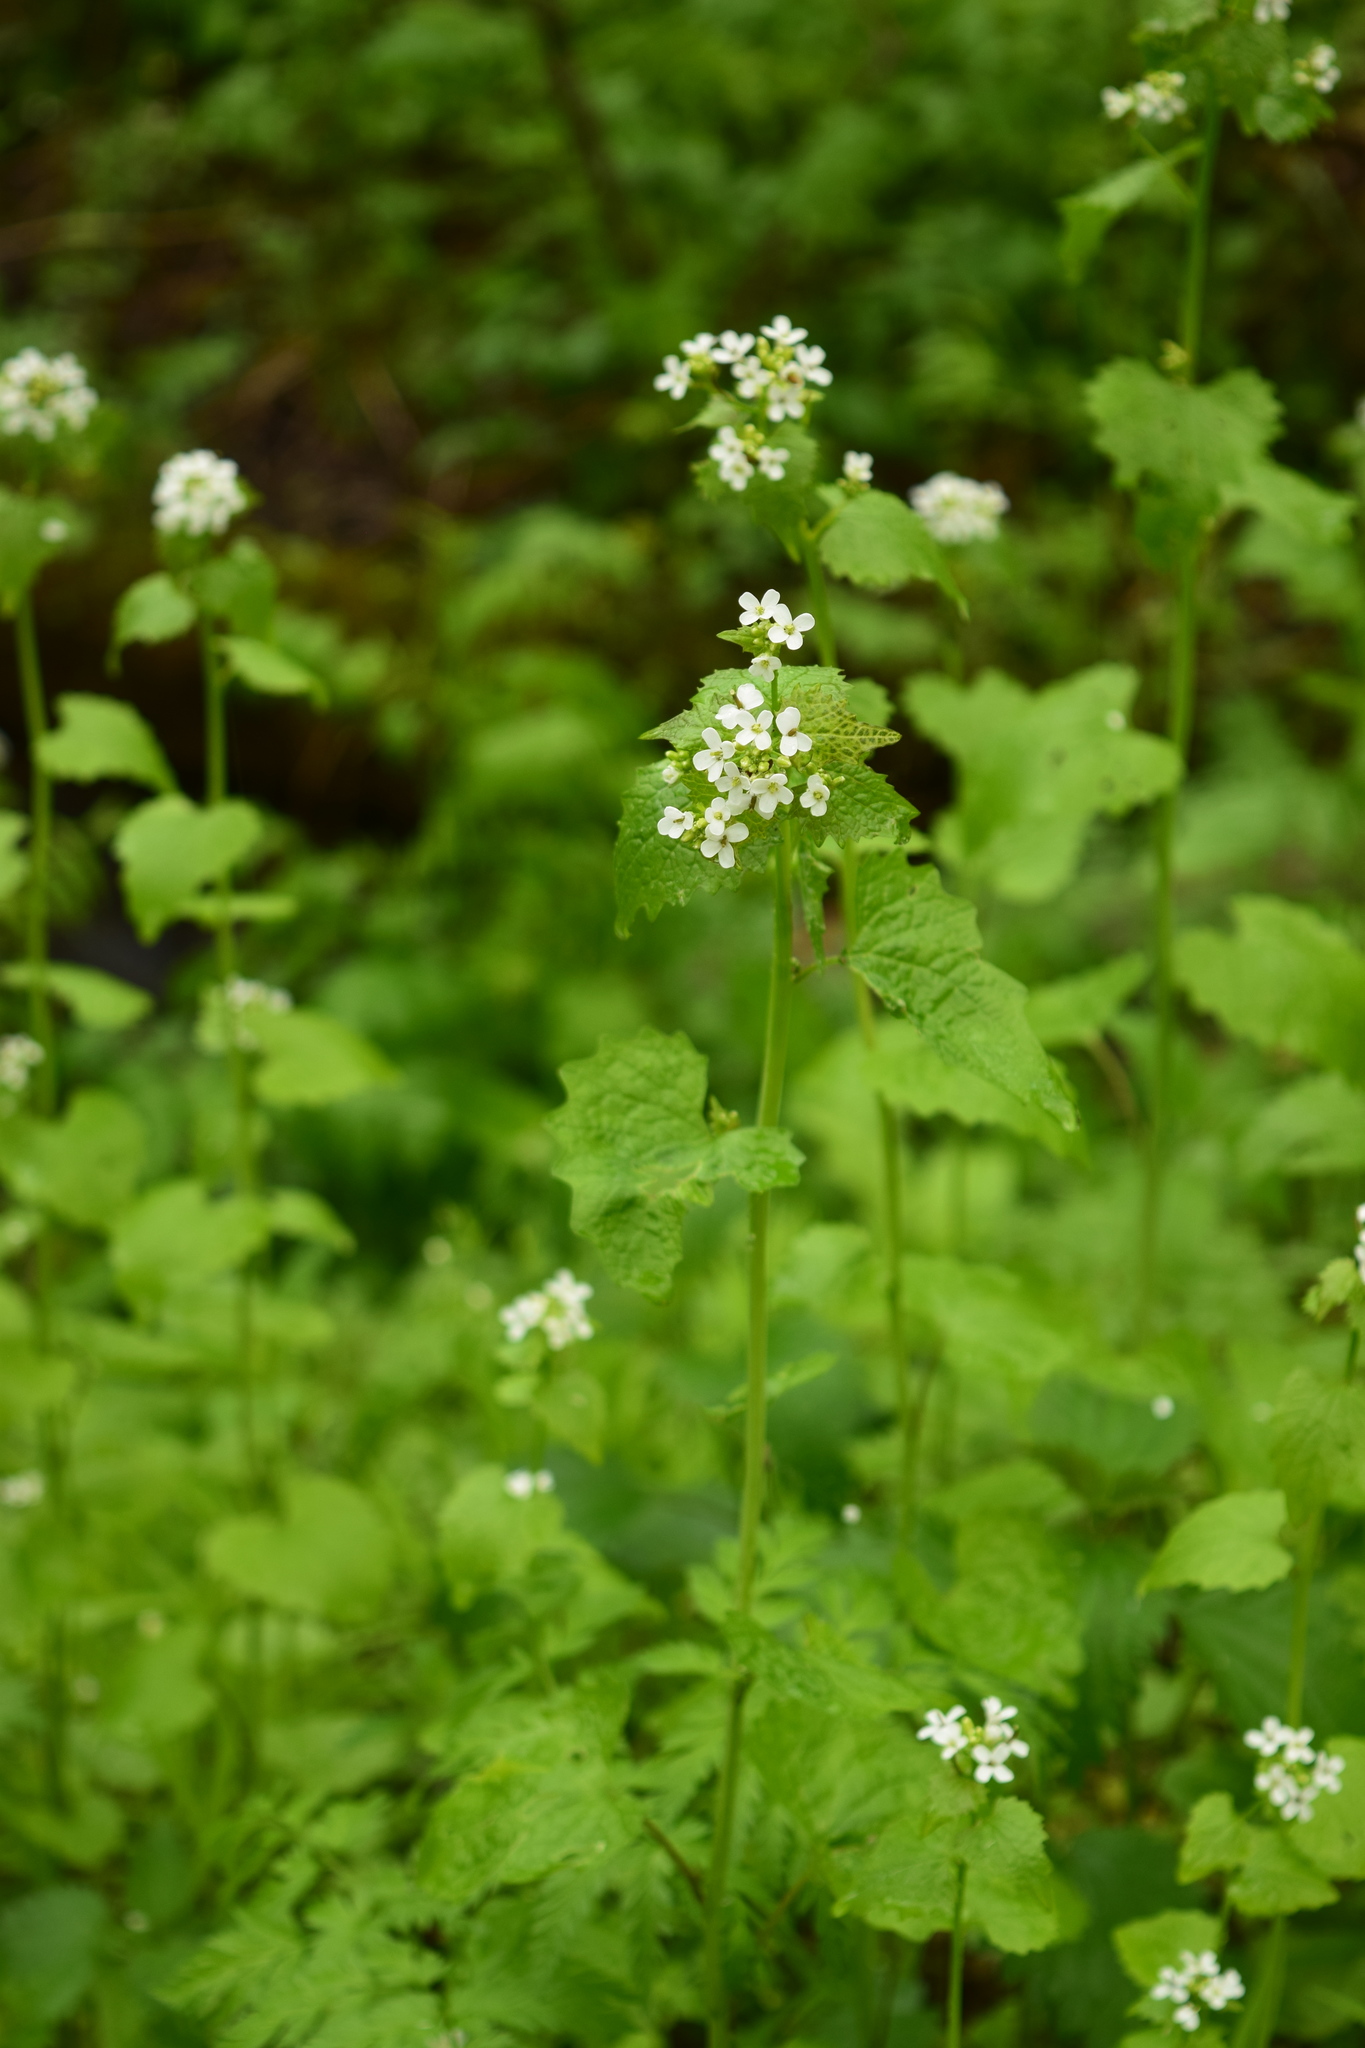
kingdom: Plantae
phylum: Tracheophyta
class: Magnoliopsida
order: Brassicales
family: Brassicaceae
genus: Alliaria
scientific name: Alliaria petiolata
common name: Garlic mustard
